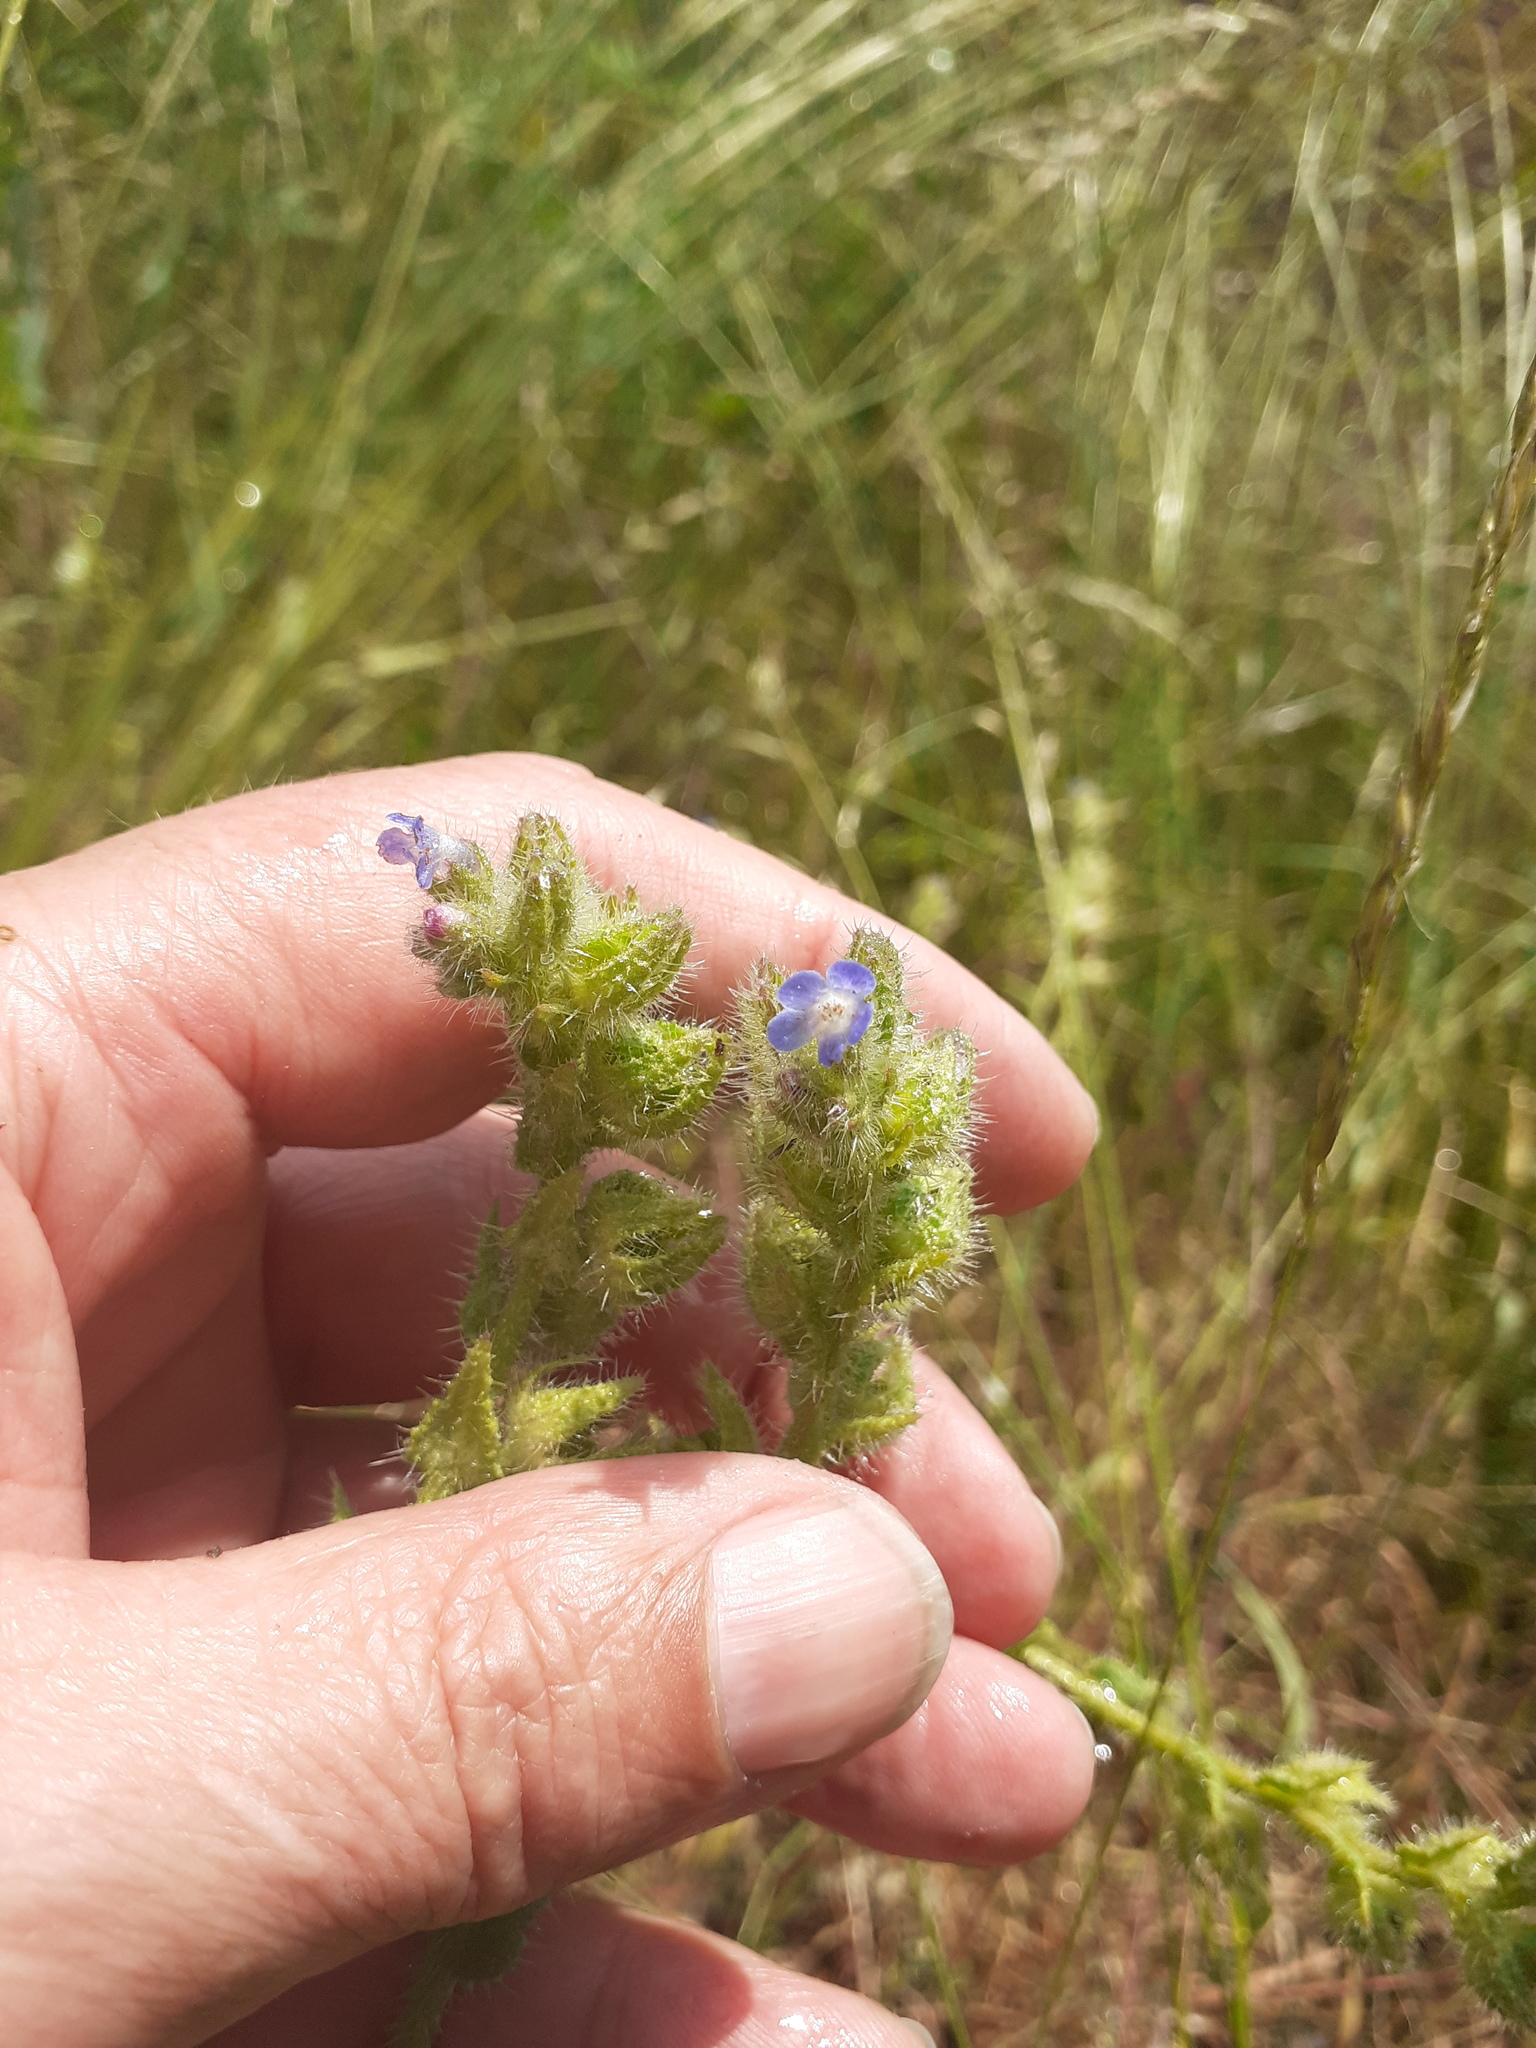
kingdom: Plantae
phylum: Tracheophyta
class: Magnoliopsida
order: Boraginales
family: Boraginaceae
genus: Lycopsis
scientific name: Lycopsis arvensis
